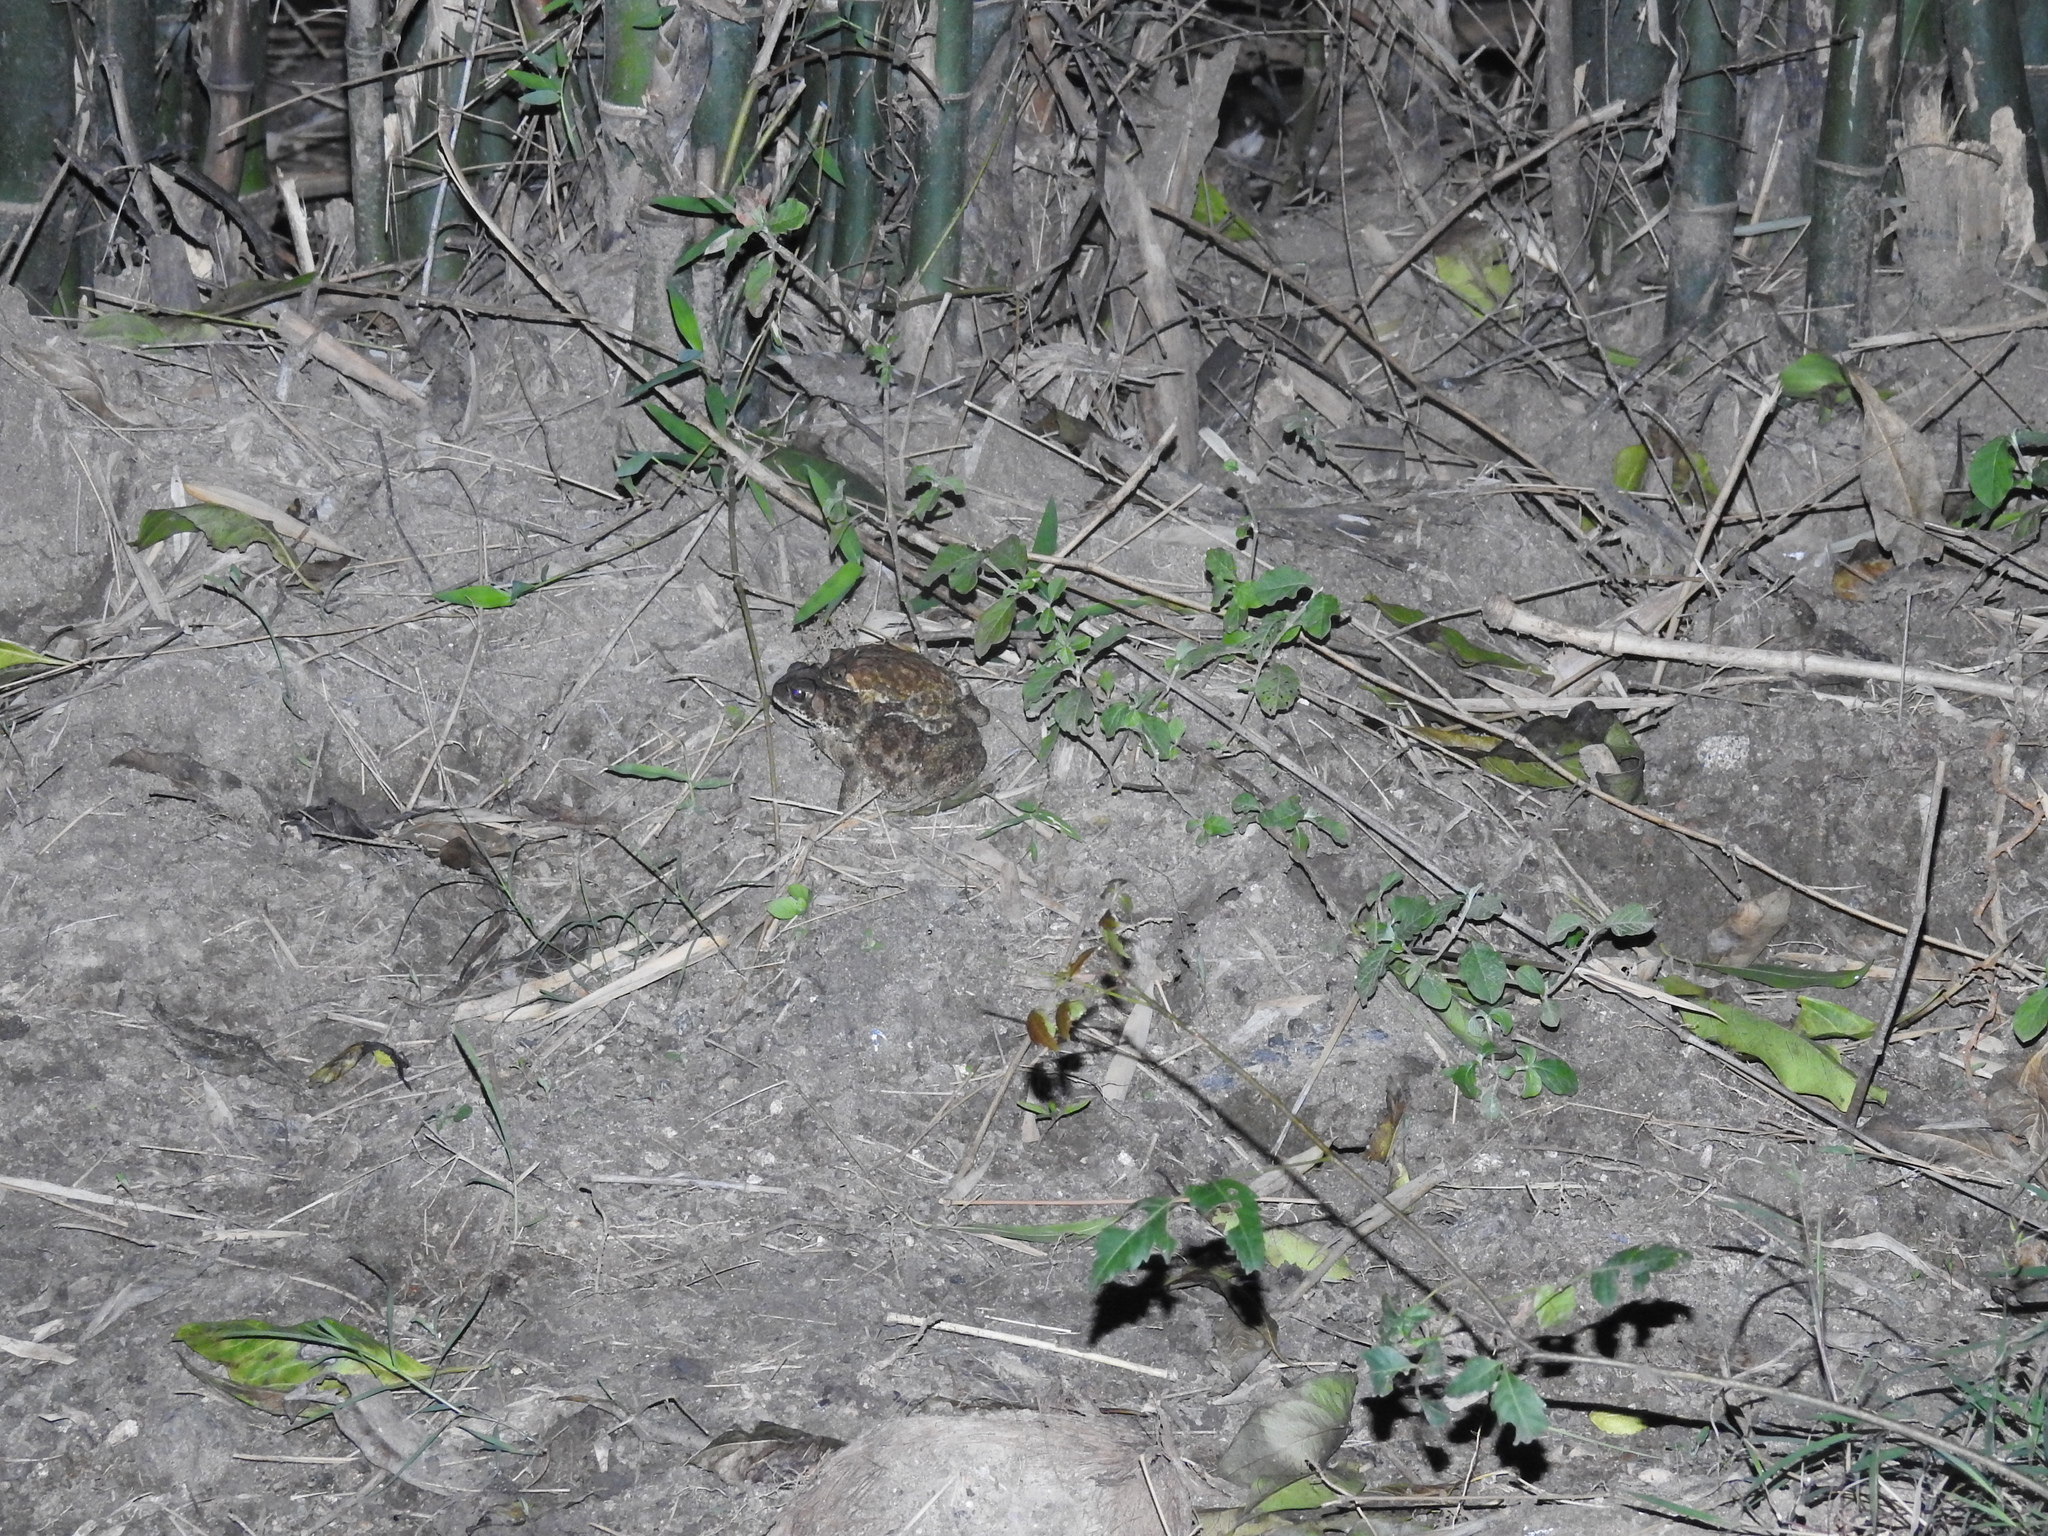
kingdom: Animalia
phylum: Chordata
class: Amphibia
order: Anura
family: Bufonidae
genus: Duttaphrynus
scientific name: Duttaphrynus melanostictus
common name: Common sunda toad
